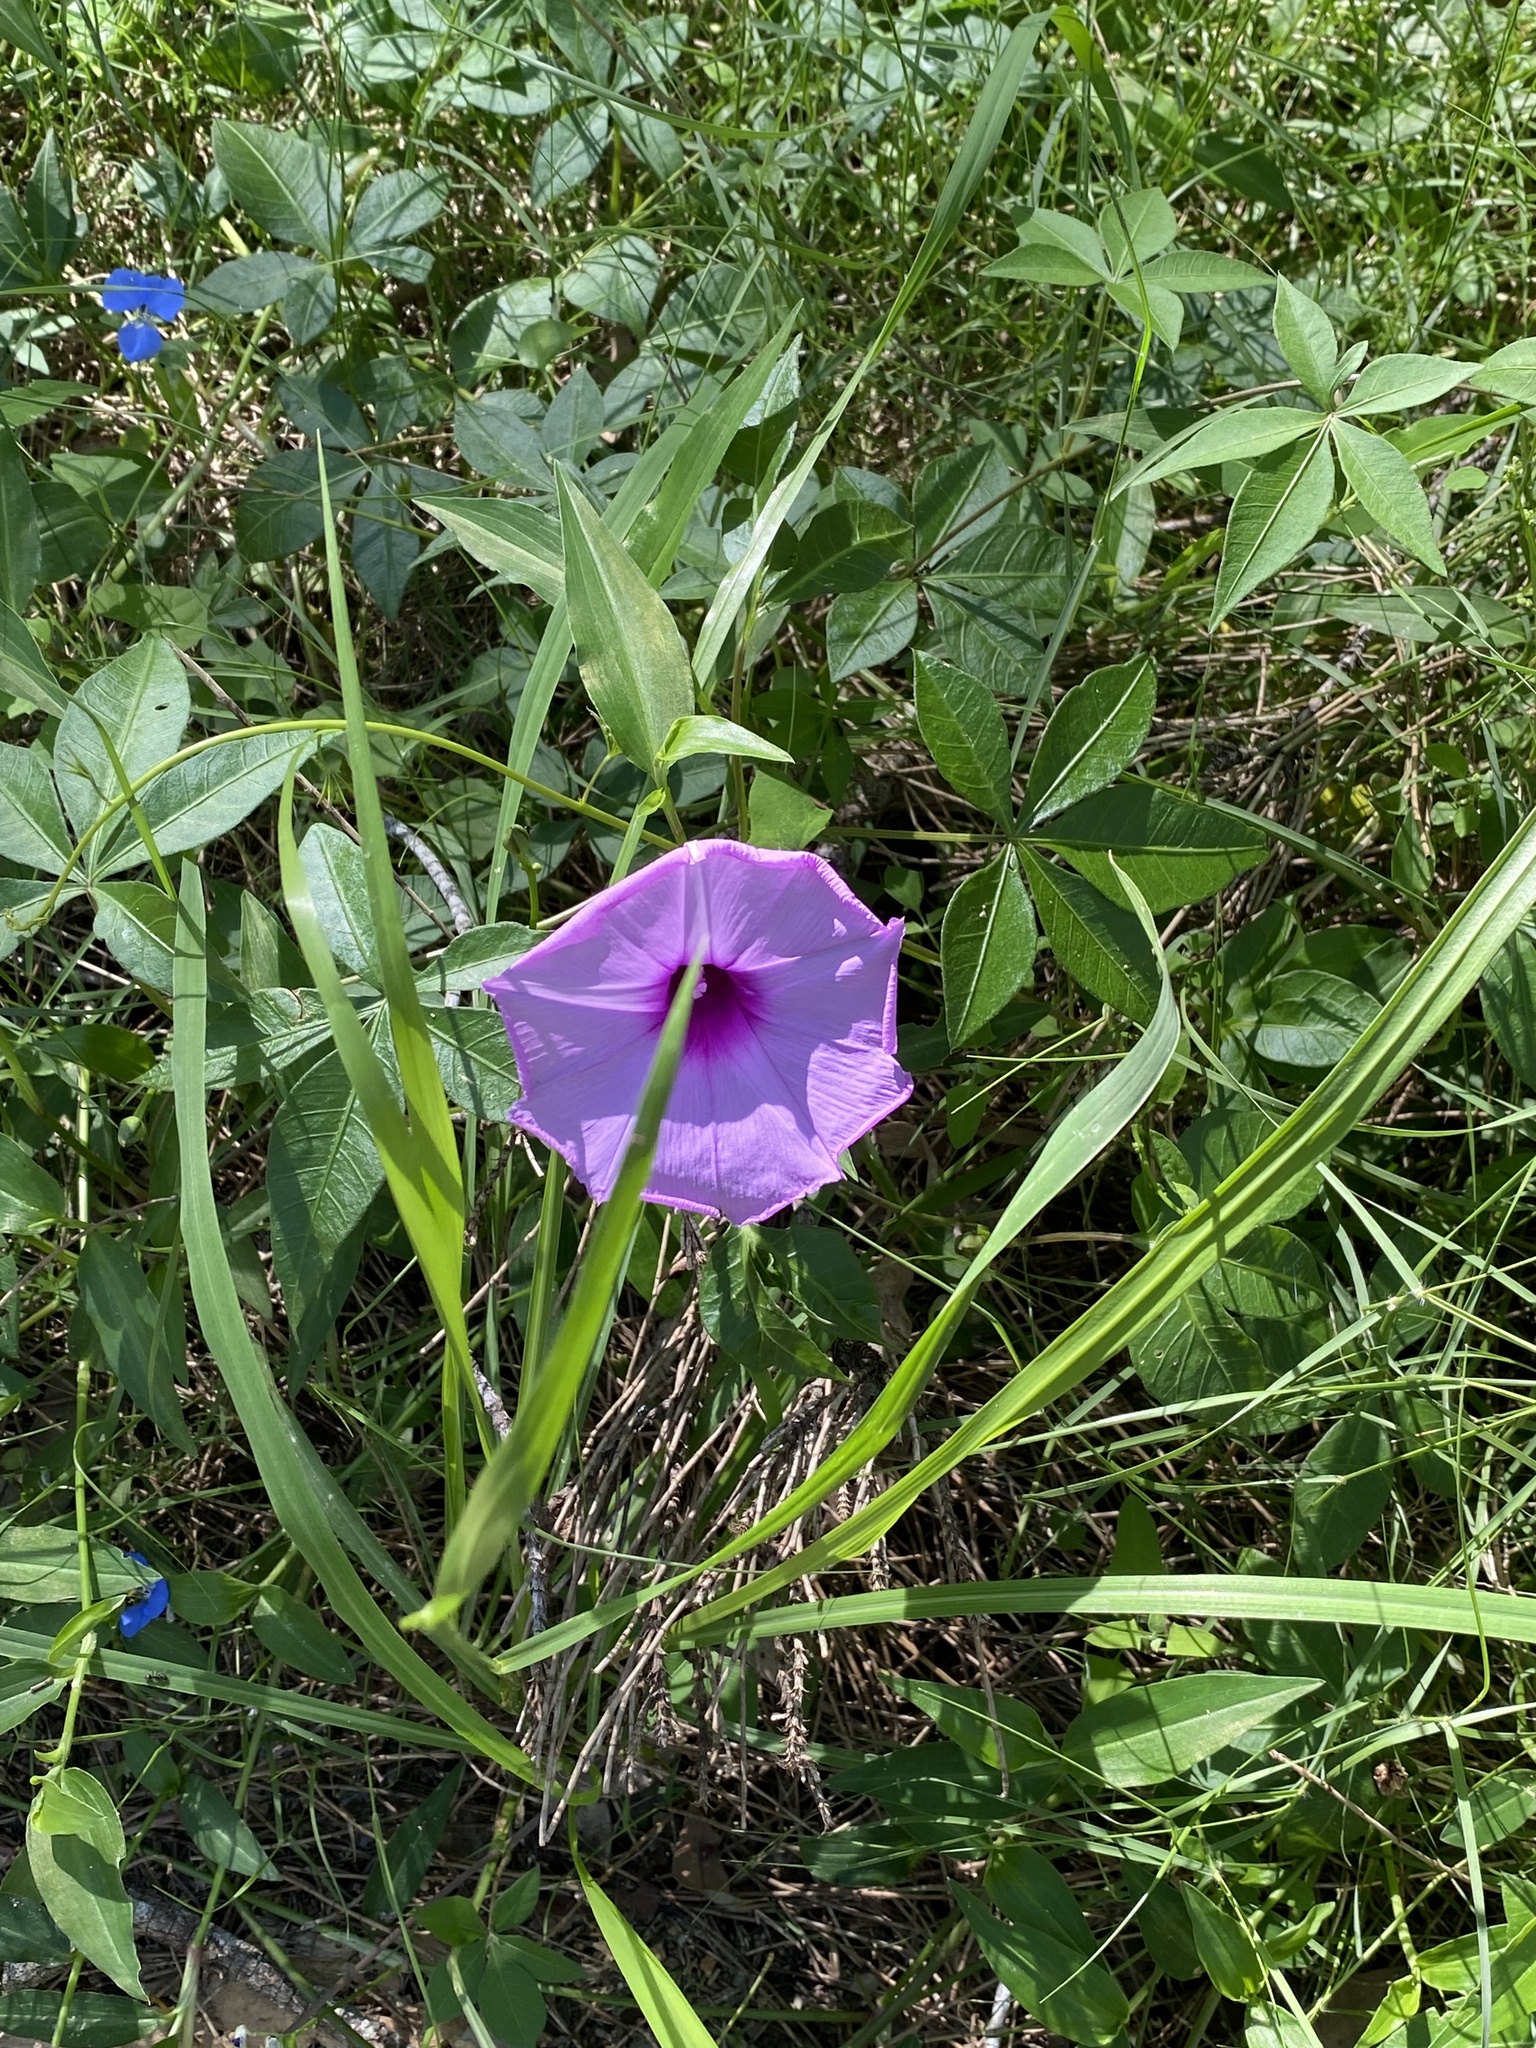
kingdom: Plantae
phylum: Tracheophyta
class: Magnoliopsida
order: Solanales
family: Convolvulaceae
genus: Ipomoea
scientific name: Ipomoea cairica
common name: Mile a minute vine
